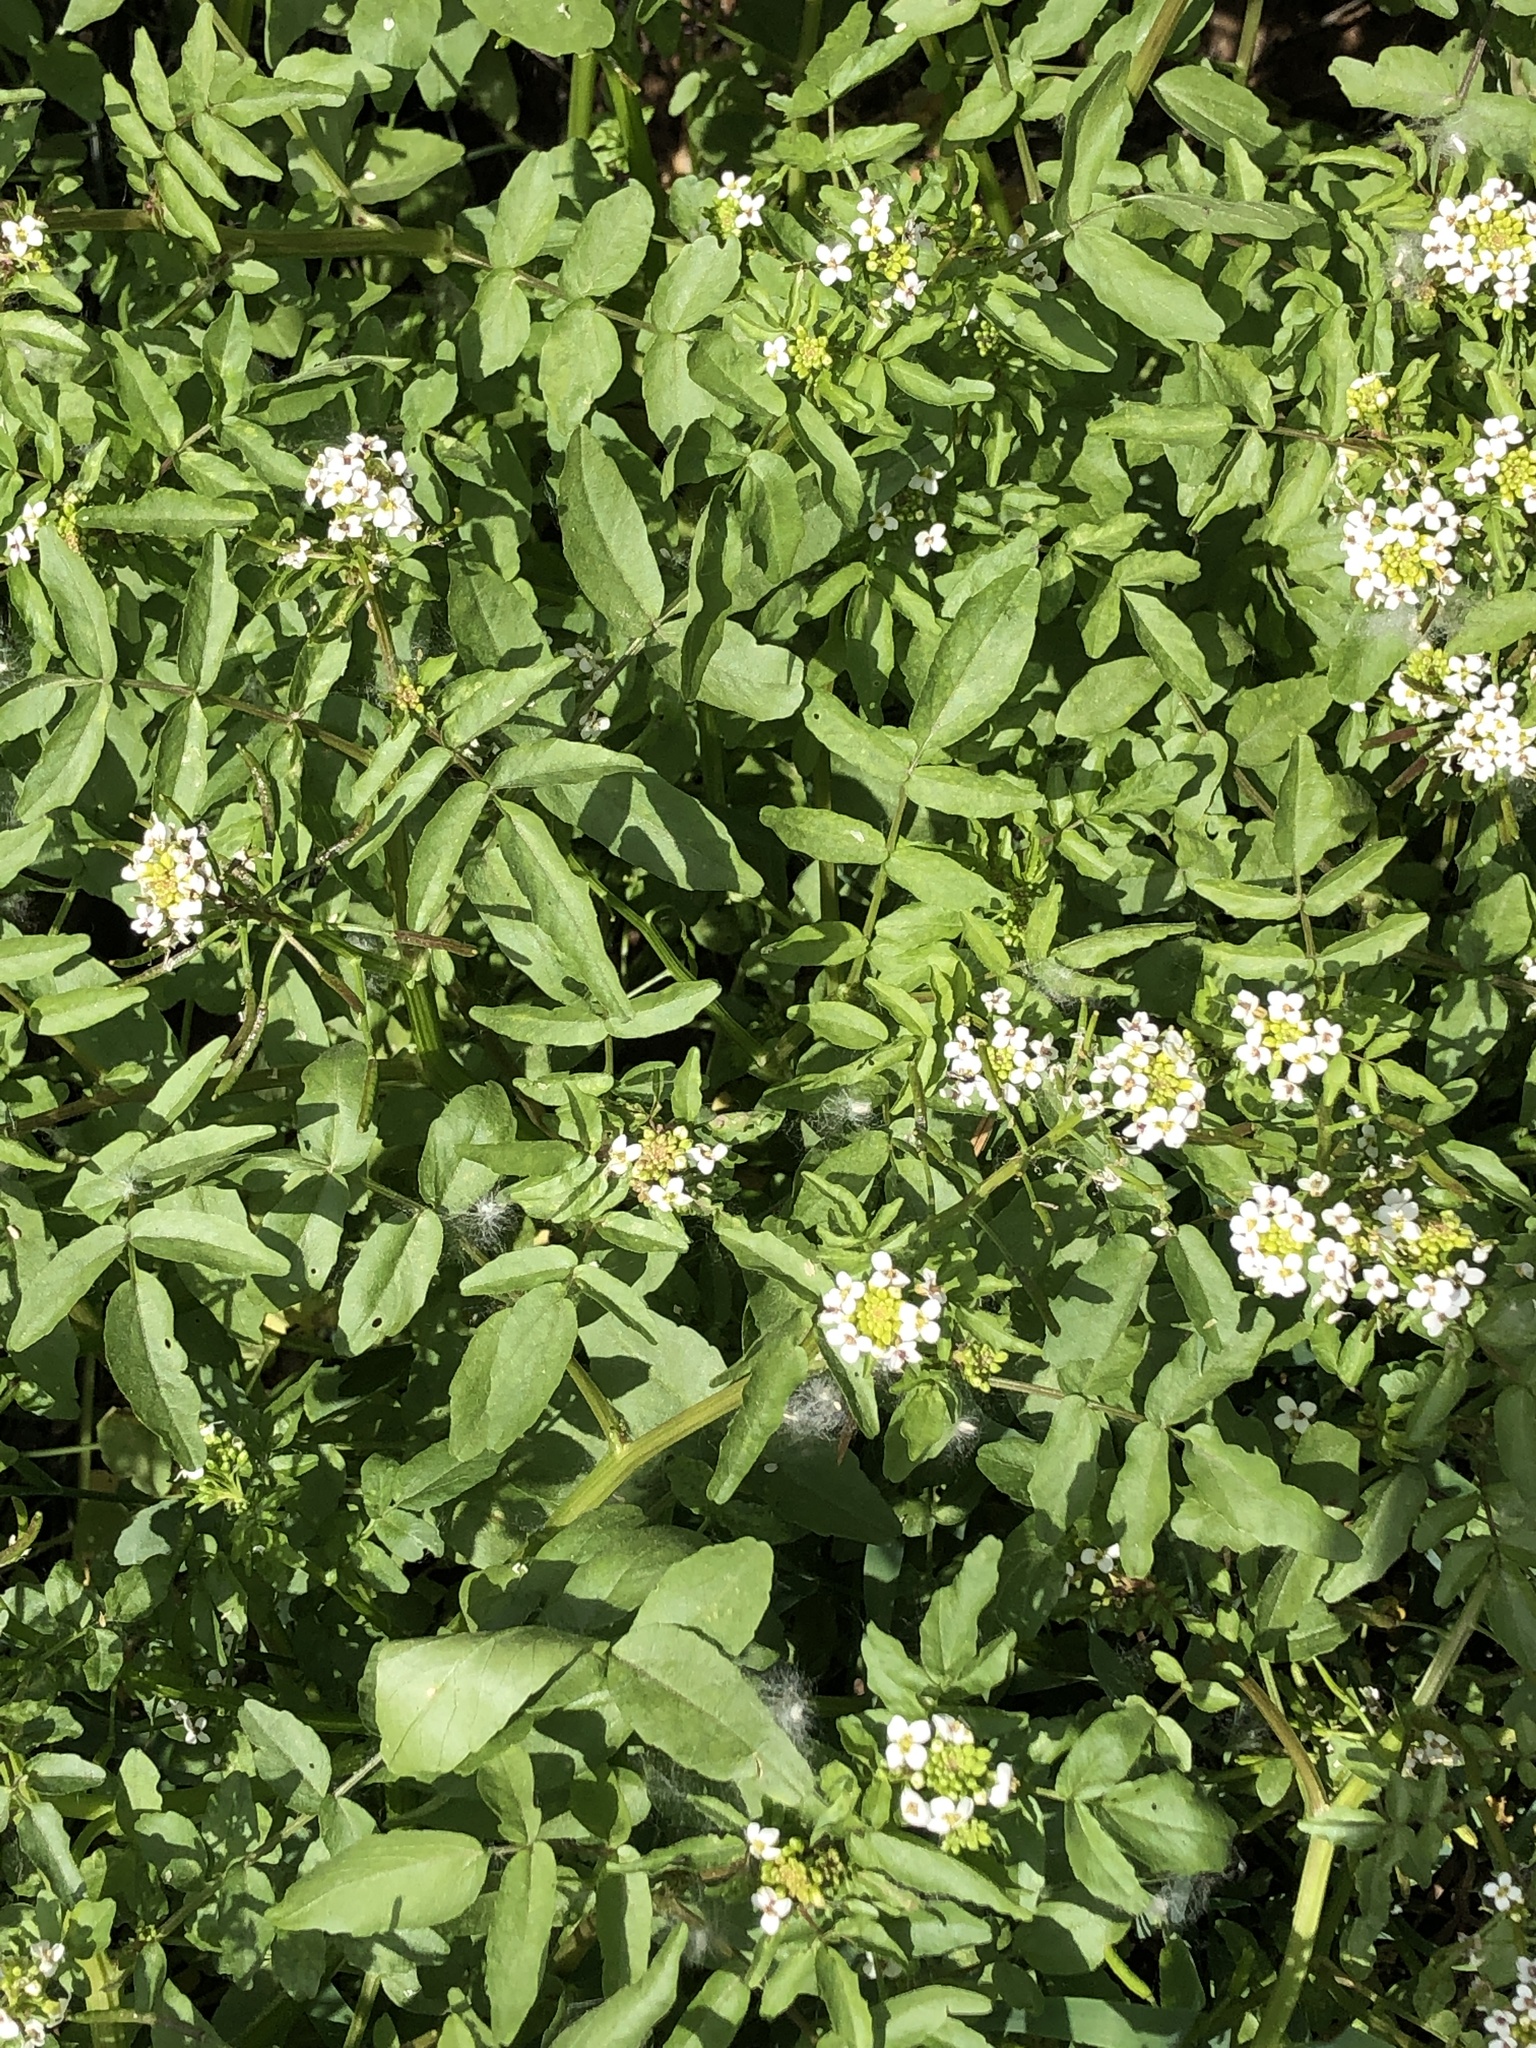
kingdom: Plantae
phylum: Tracheophyta
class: Magnoliopsida
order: Brassicales
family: Brassicaceae
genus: Nasturtium
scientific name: Nasturtium officinale
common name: Watercress
